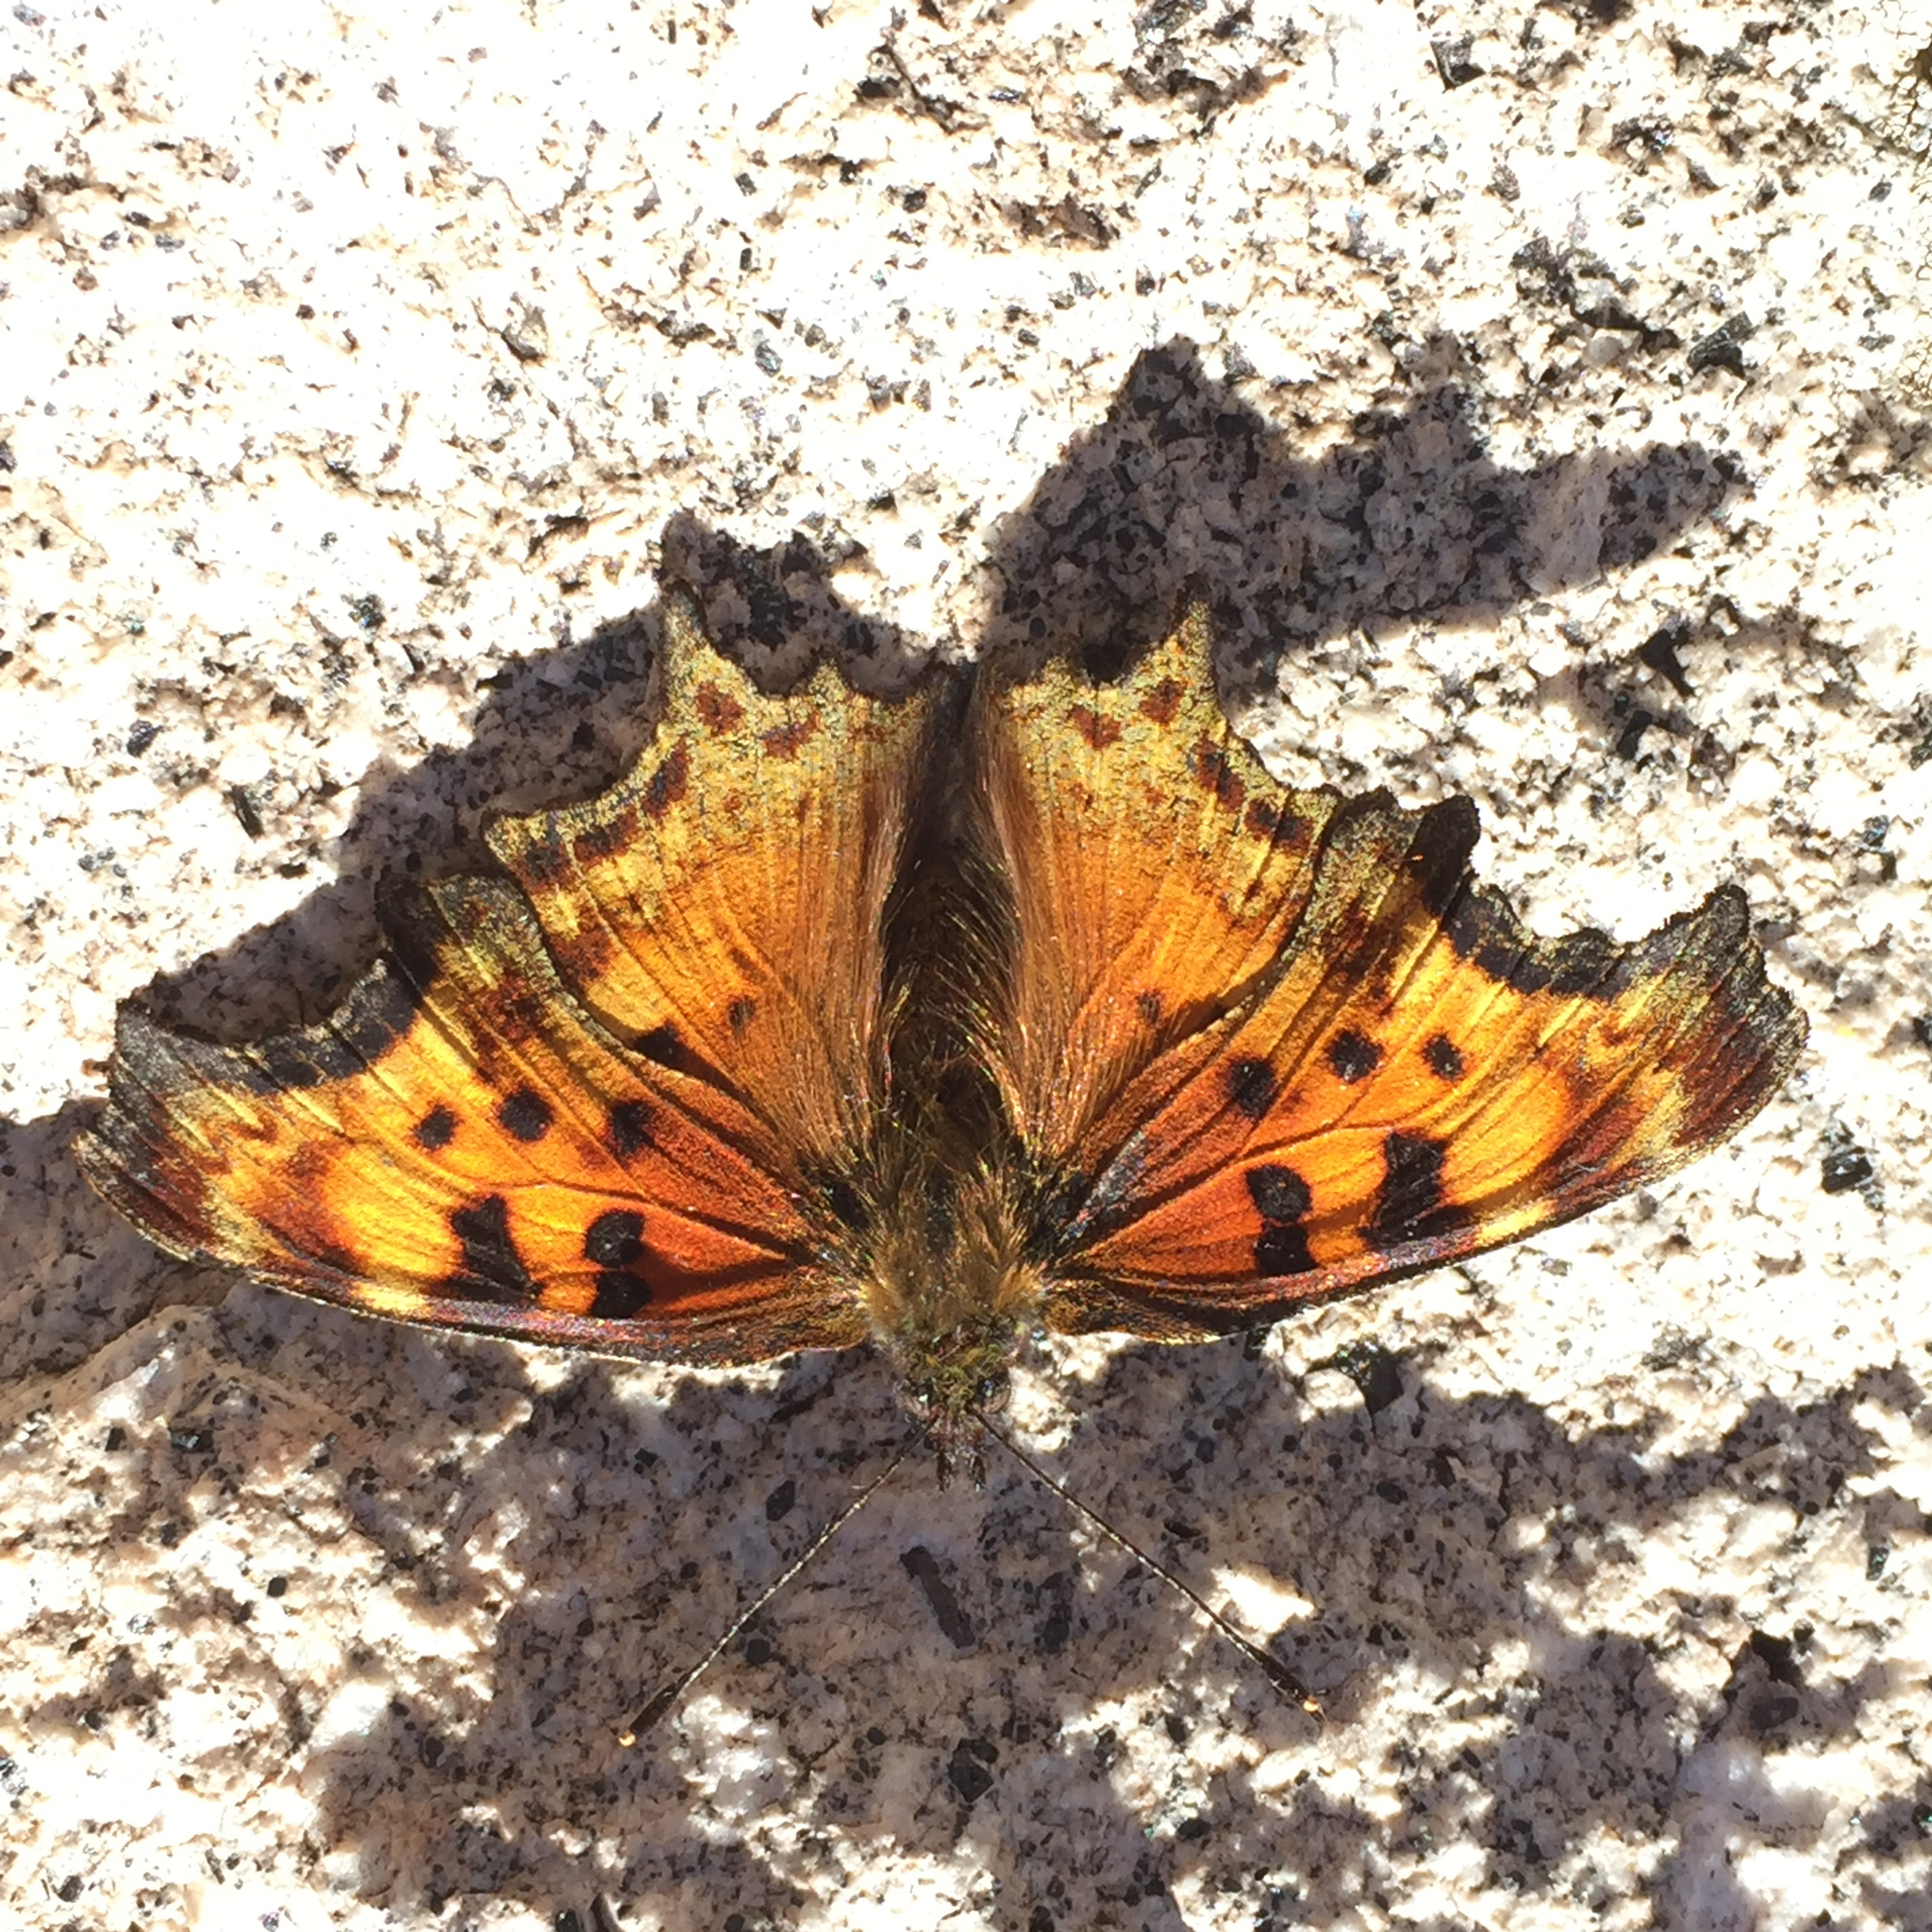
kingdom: Animalia
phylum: Arthropoda
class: Insecta
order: Lepidoptera
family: Nymphalidae
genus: Polygonia
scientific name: Polygonia gracilis
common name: Hoary comma
